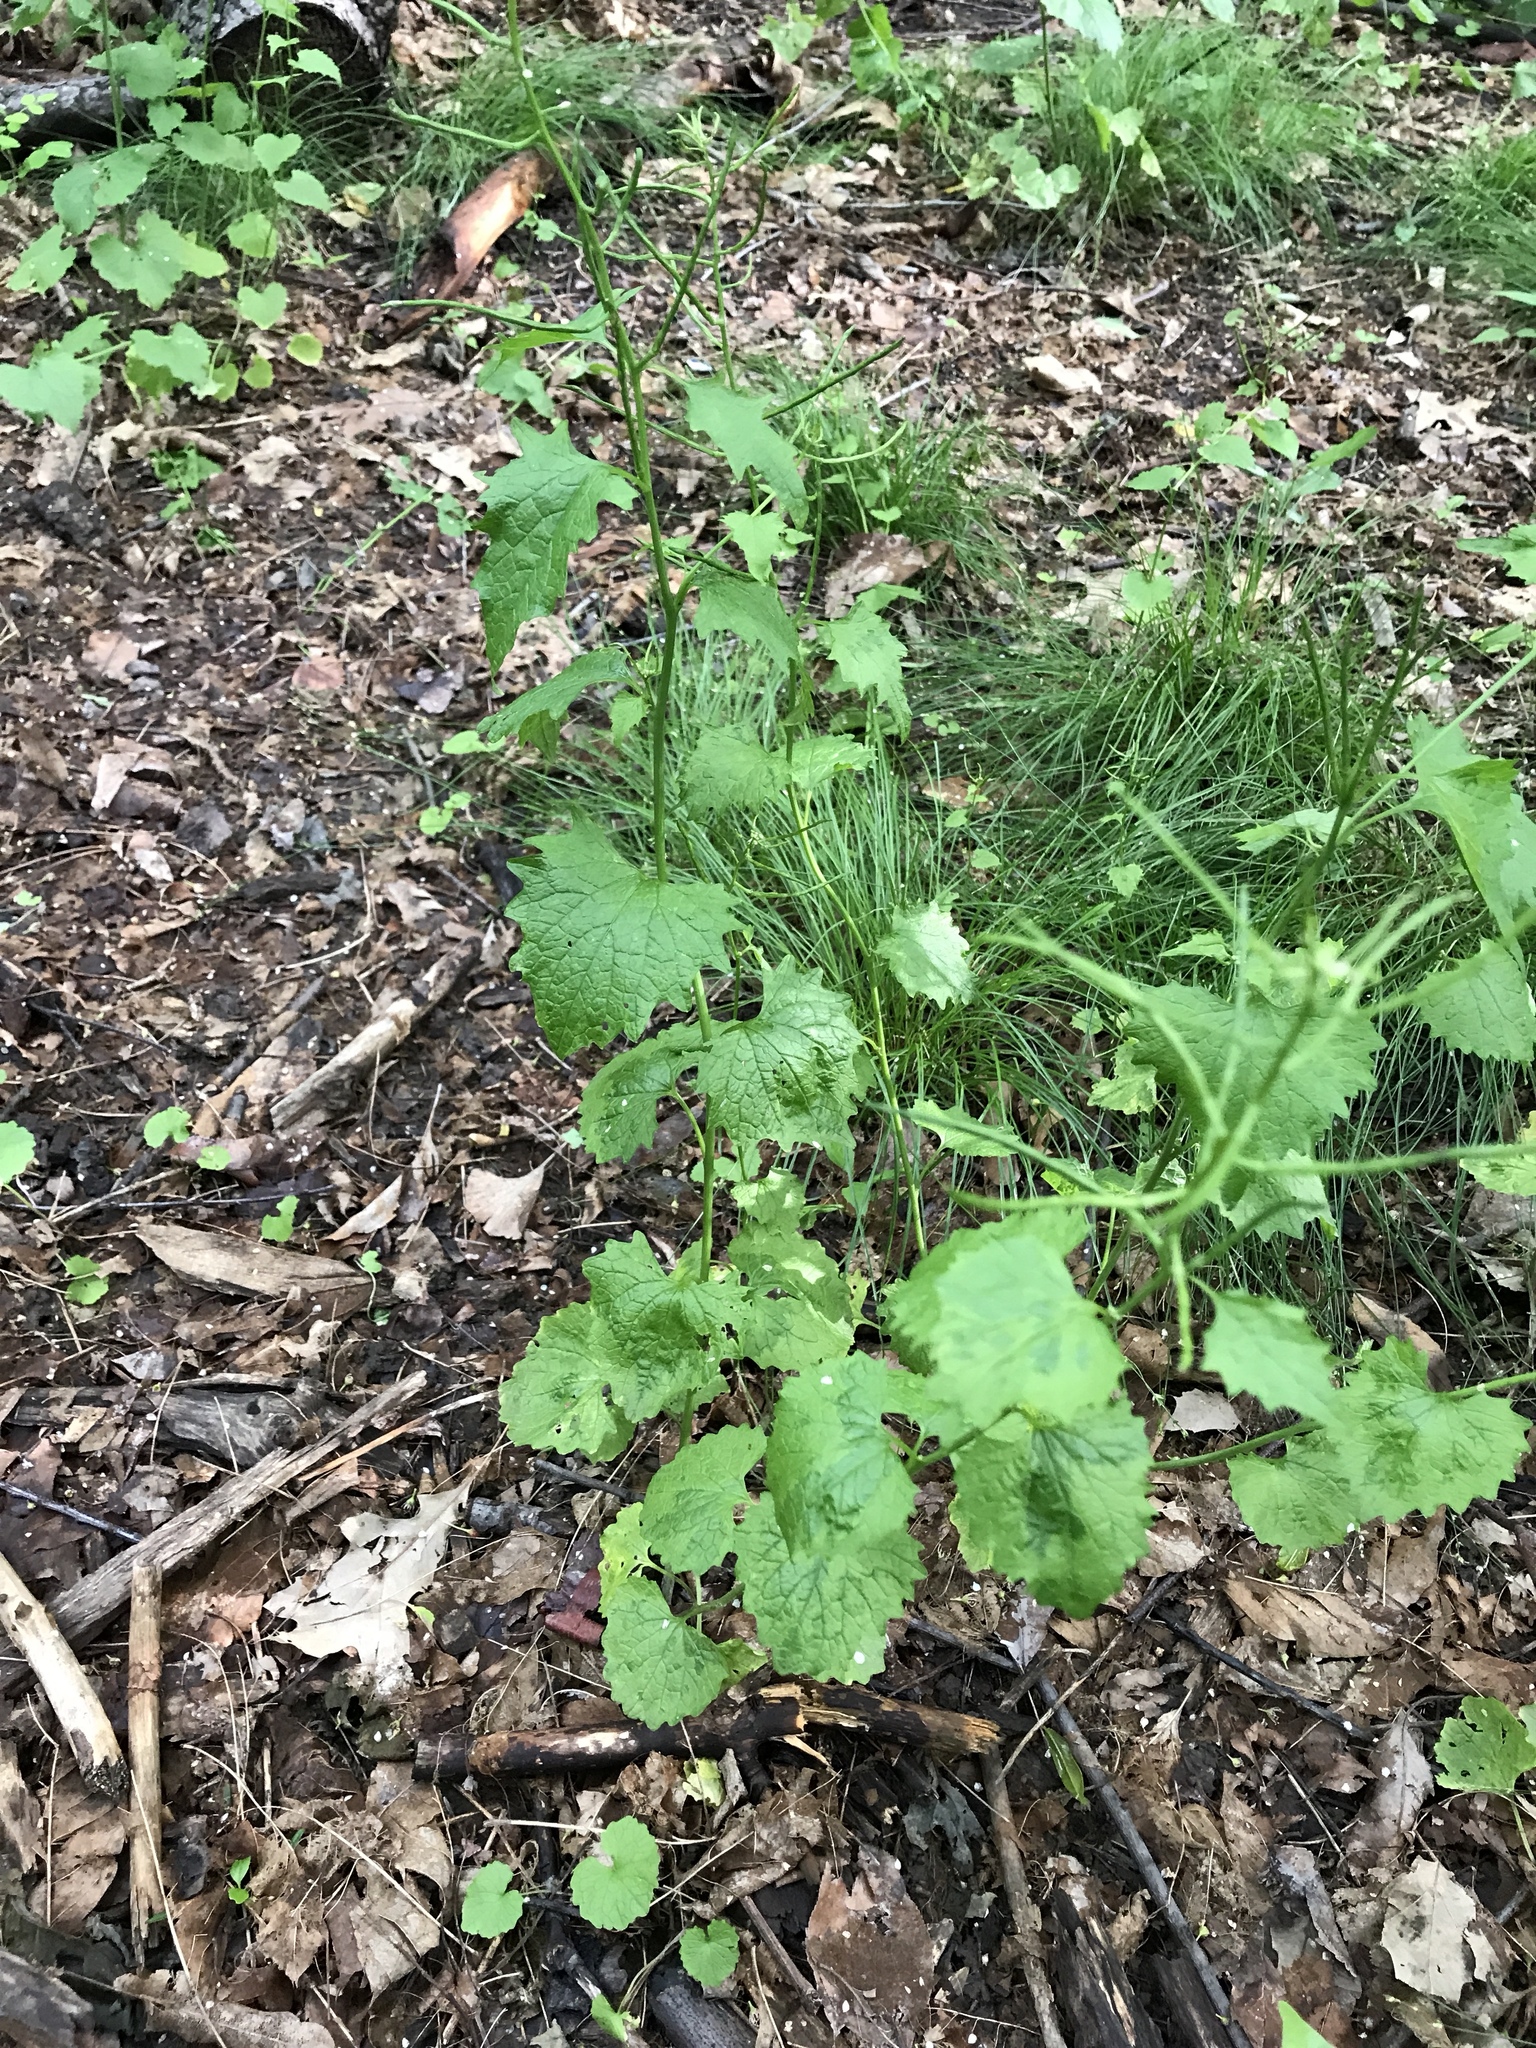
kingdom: Plantae
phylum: Tracheophyta
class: Magnoliopsida
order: Brassicales
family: Brassicaceae
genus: Alliaria
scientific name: Alliaria petiolata
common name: Garlic mustard
